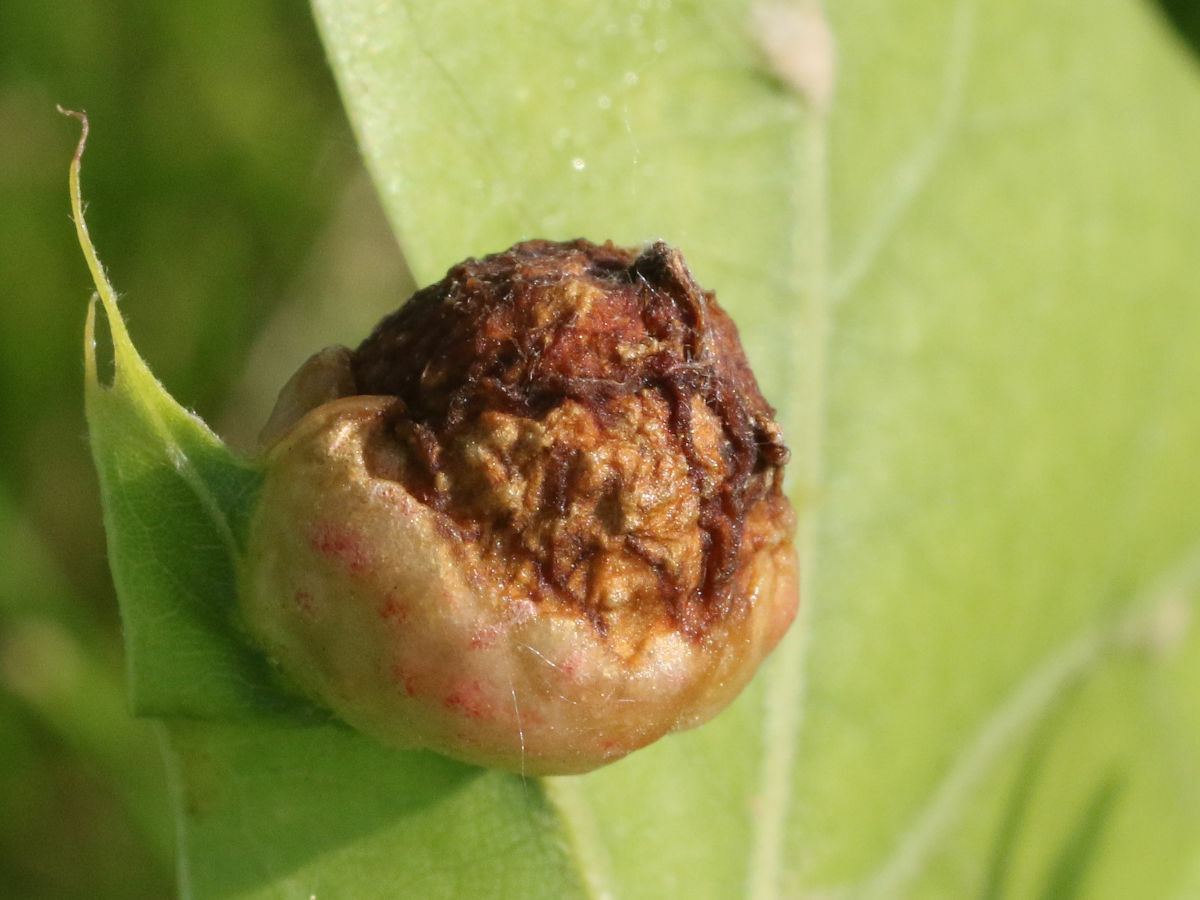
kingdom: Animalia
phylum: Arthropoda
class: Insecta
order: Hymenoptera
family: Cynipidae
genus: Dryocosmus
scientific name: Dryocosmus quercuspalustris
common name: Succulent oak gall wasp
